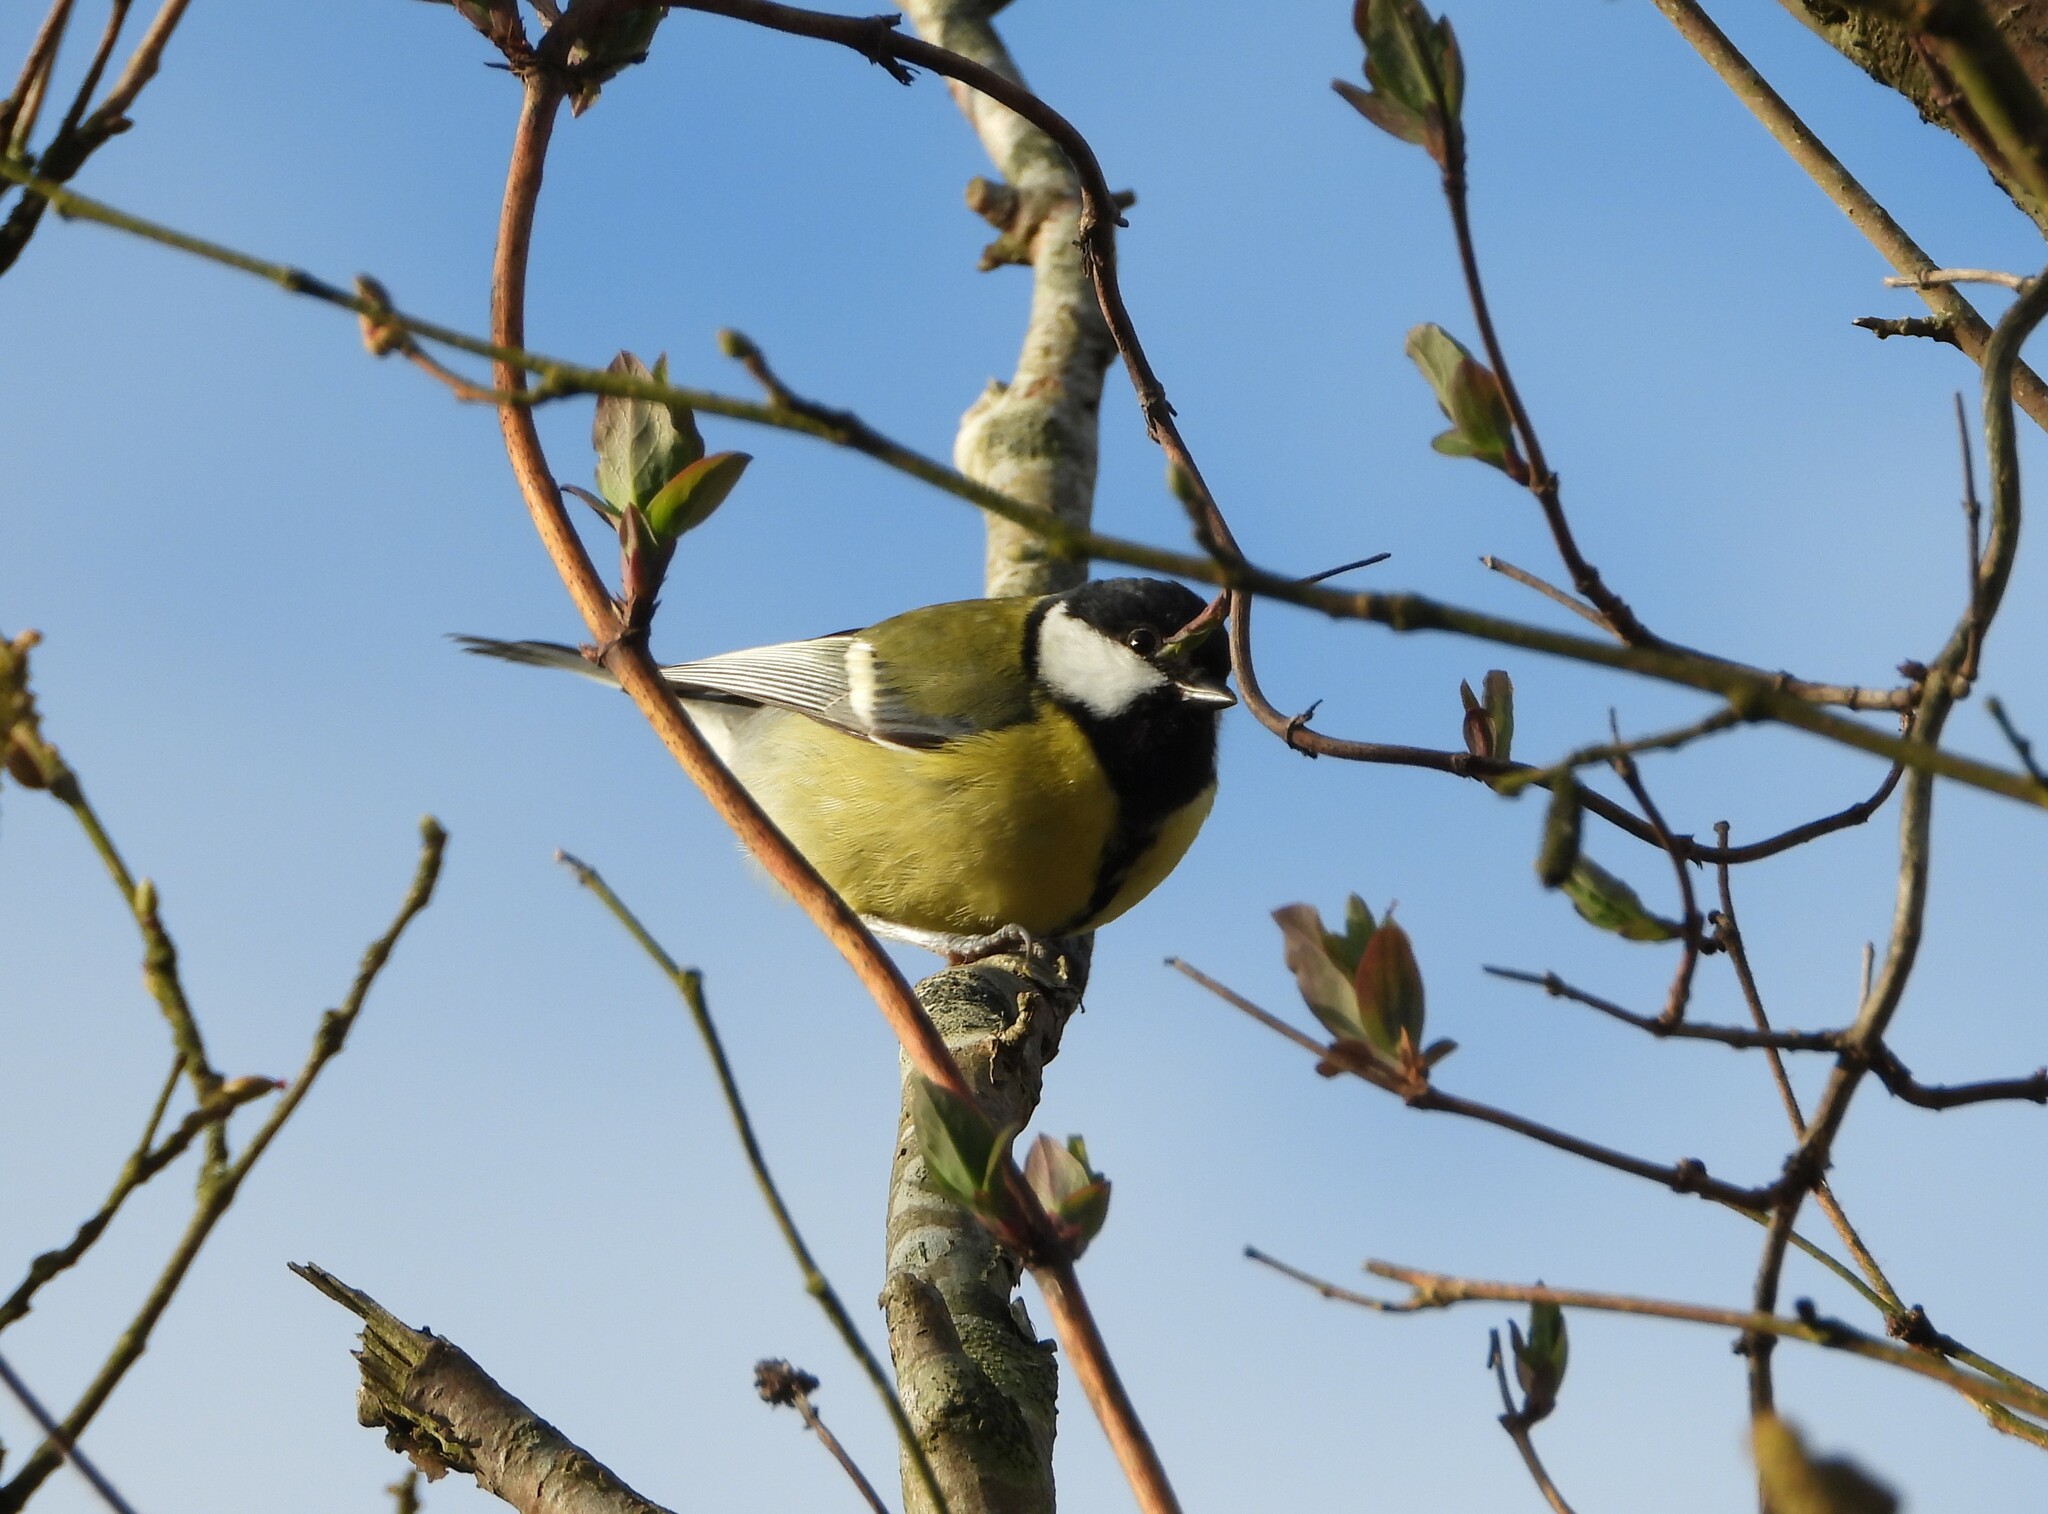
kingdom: Animalia
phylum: Chordata
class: Aves
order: Passeriformes
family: Paridae
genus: Parus
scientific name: Parus major
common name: Great tit
